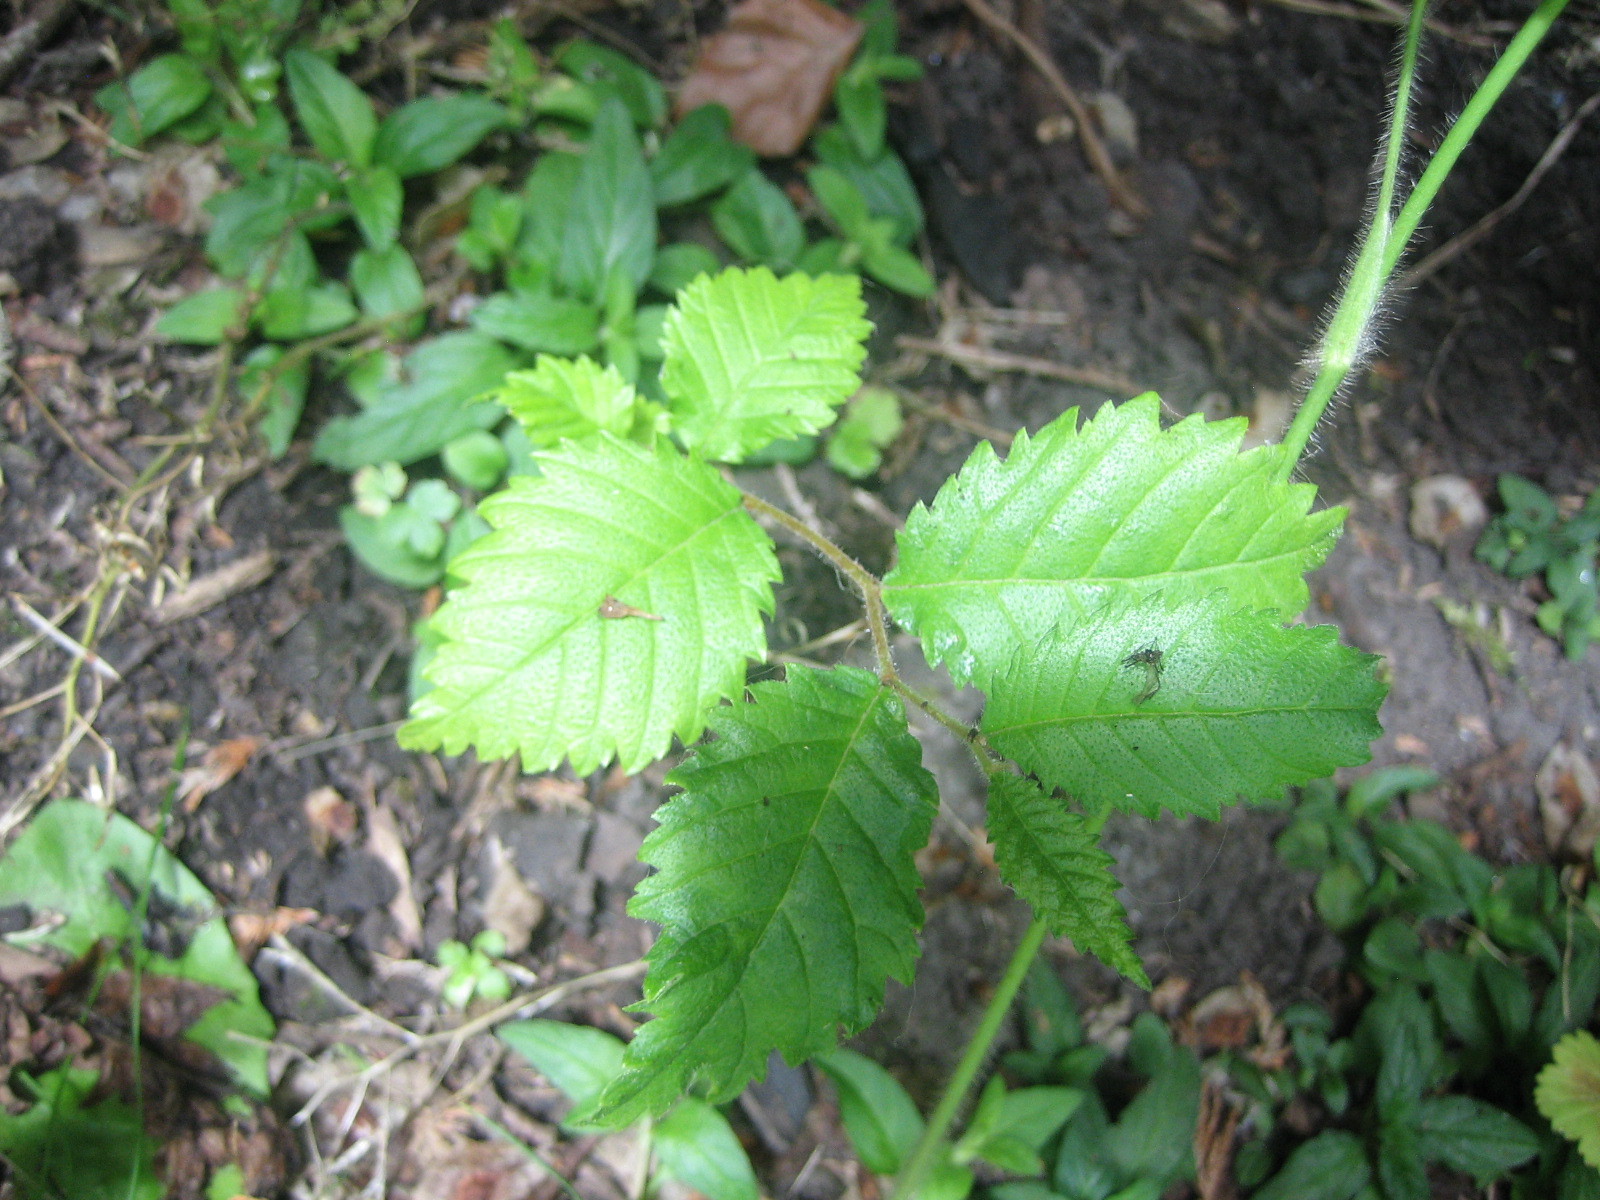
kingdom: Plantae
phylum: Tracheophyta
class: Magnoliopsida
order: Rosales
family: Ulmaceae
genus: Ulmus
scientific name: Ulmus glabra
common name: Wych elm
